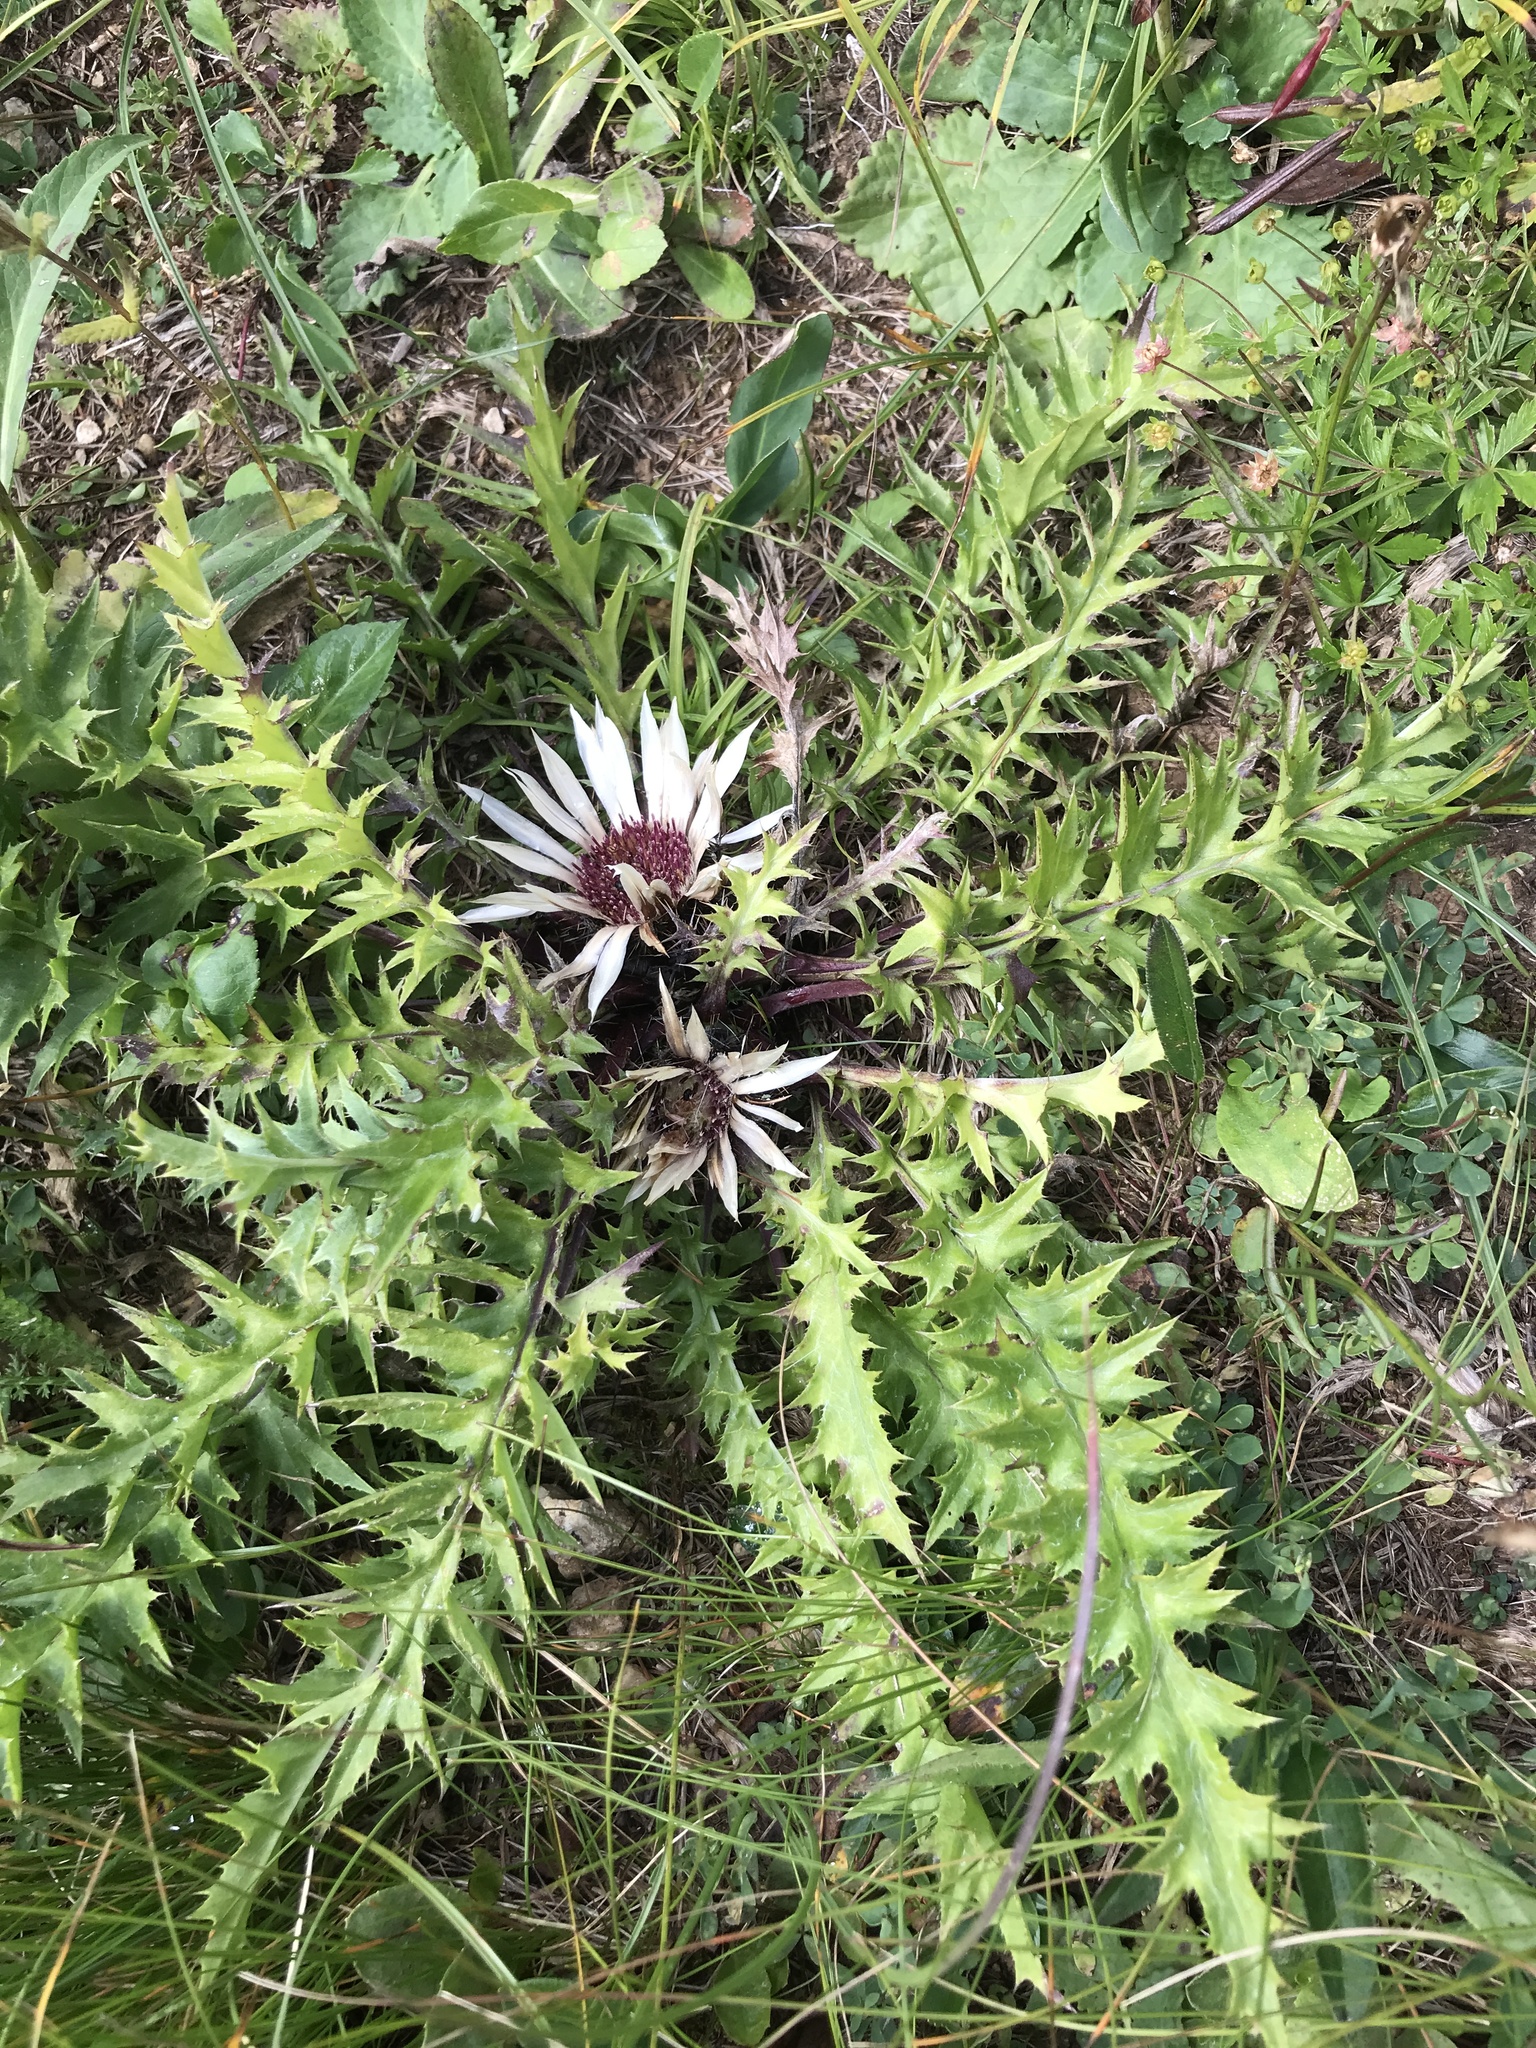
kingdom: Plantae
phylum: Tracheophyta
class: Magnoliopsida
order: Asterales
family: Asteraceae
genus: Carlina
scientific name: Carlina acaulis
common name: Stemless carline thistle
